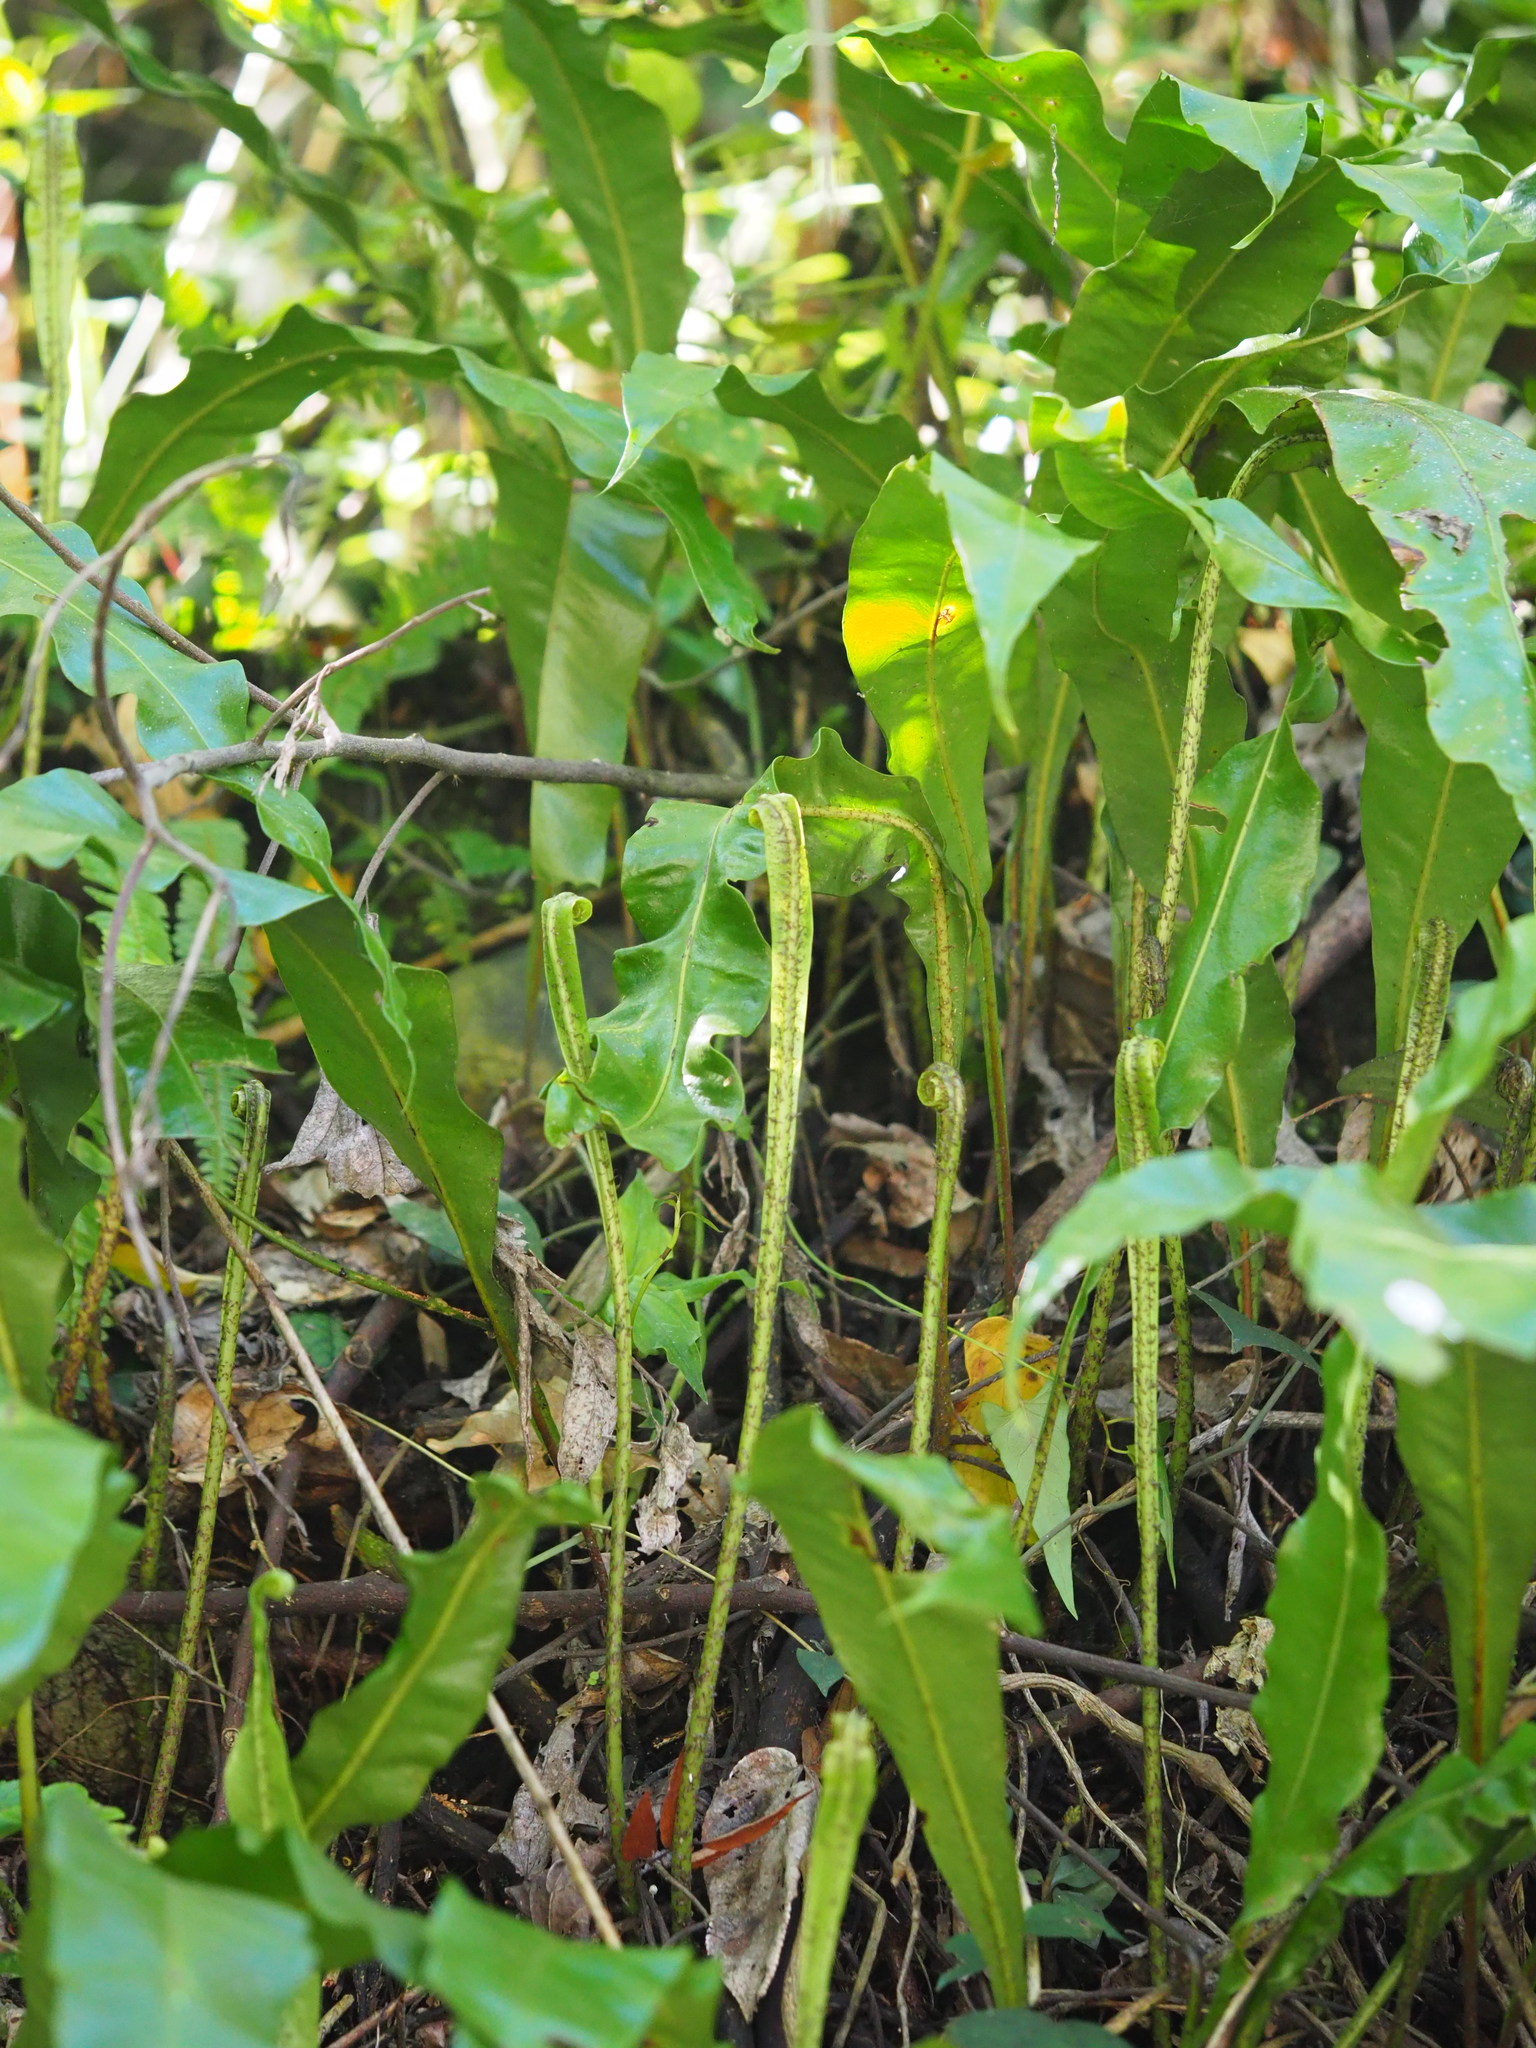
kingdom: Plantae
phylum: Tracheophyta
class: Polypodiopsida
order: Polypodiales
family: Polypodiaceae
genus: Lepisorus
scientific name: Lepisorus fortuni
